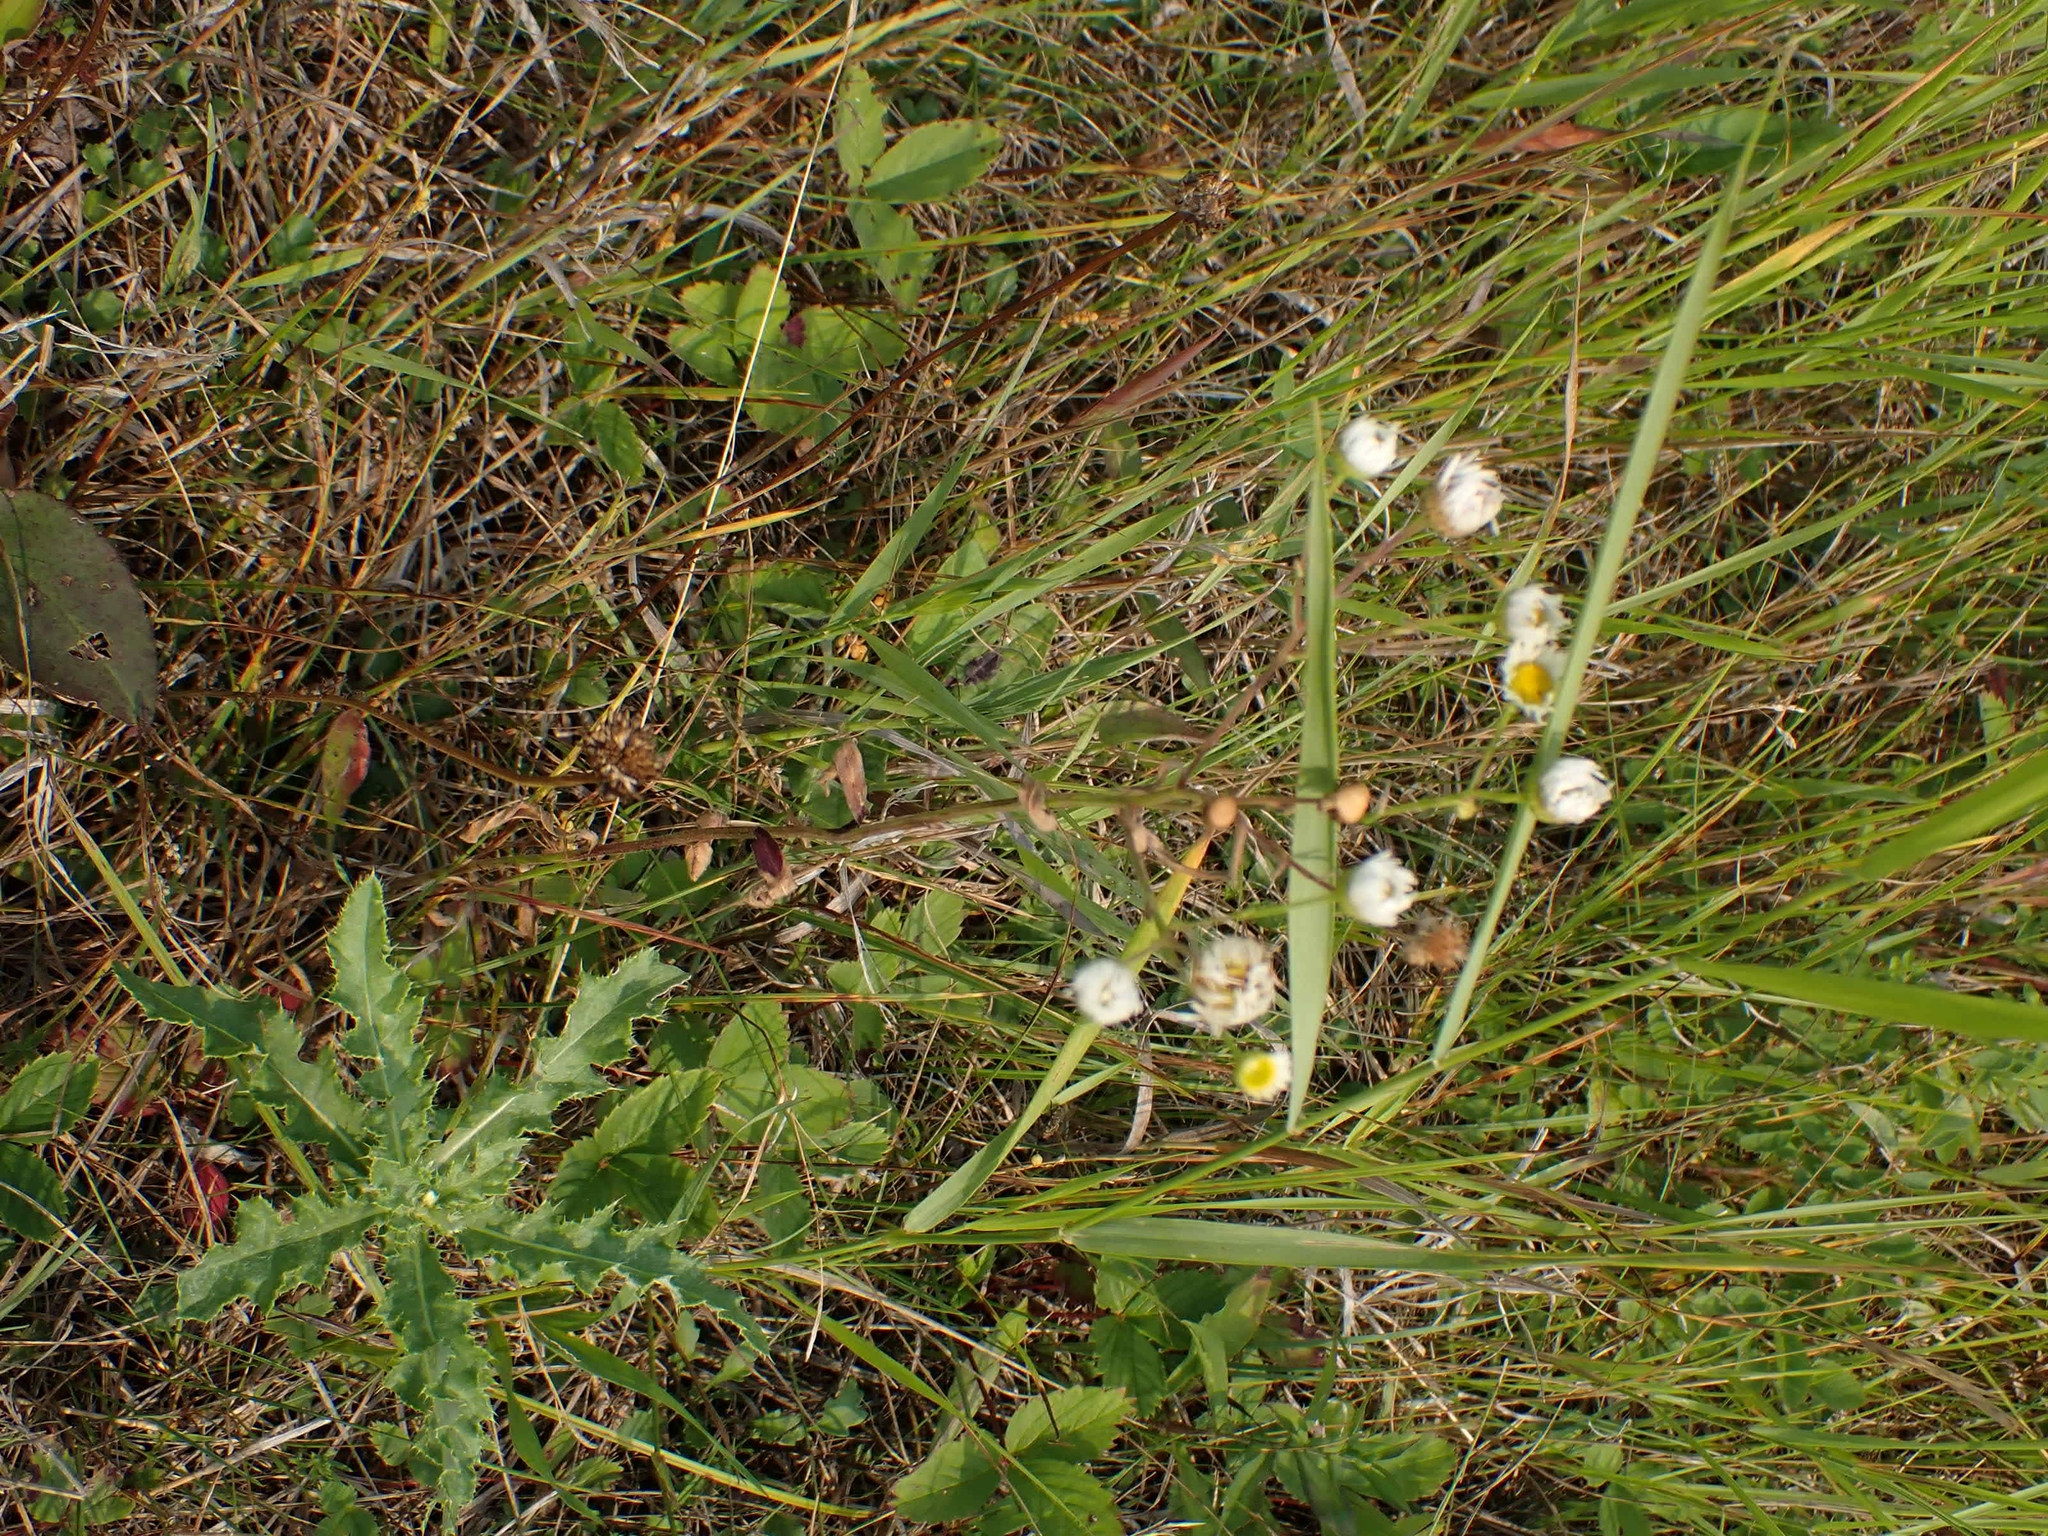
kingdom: Plantae
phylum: Tracheophyta
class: Magnoliopsida
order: Asterales
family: Asteraceae
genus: Erigeron
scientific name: Erigeron strigosus
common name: Common eastern fleabane
